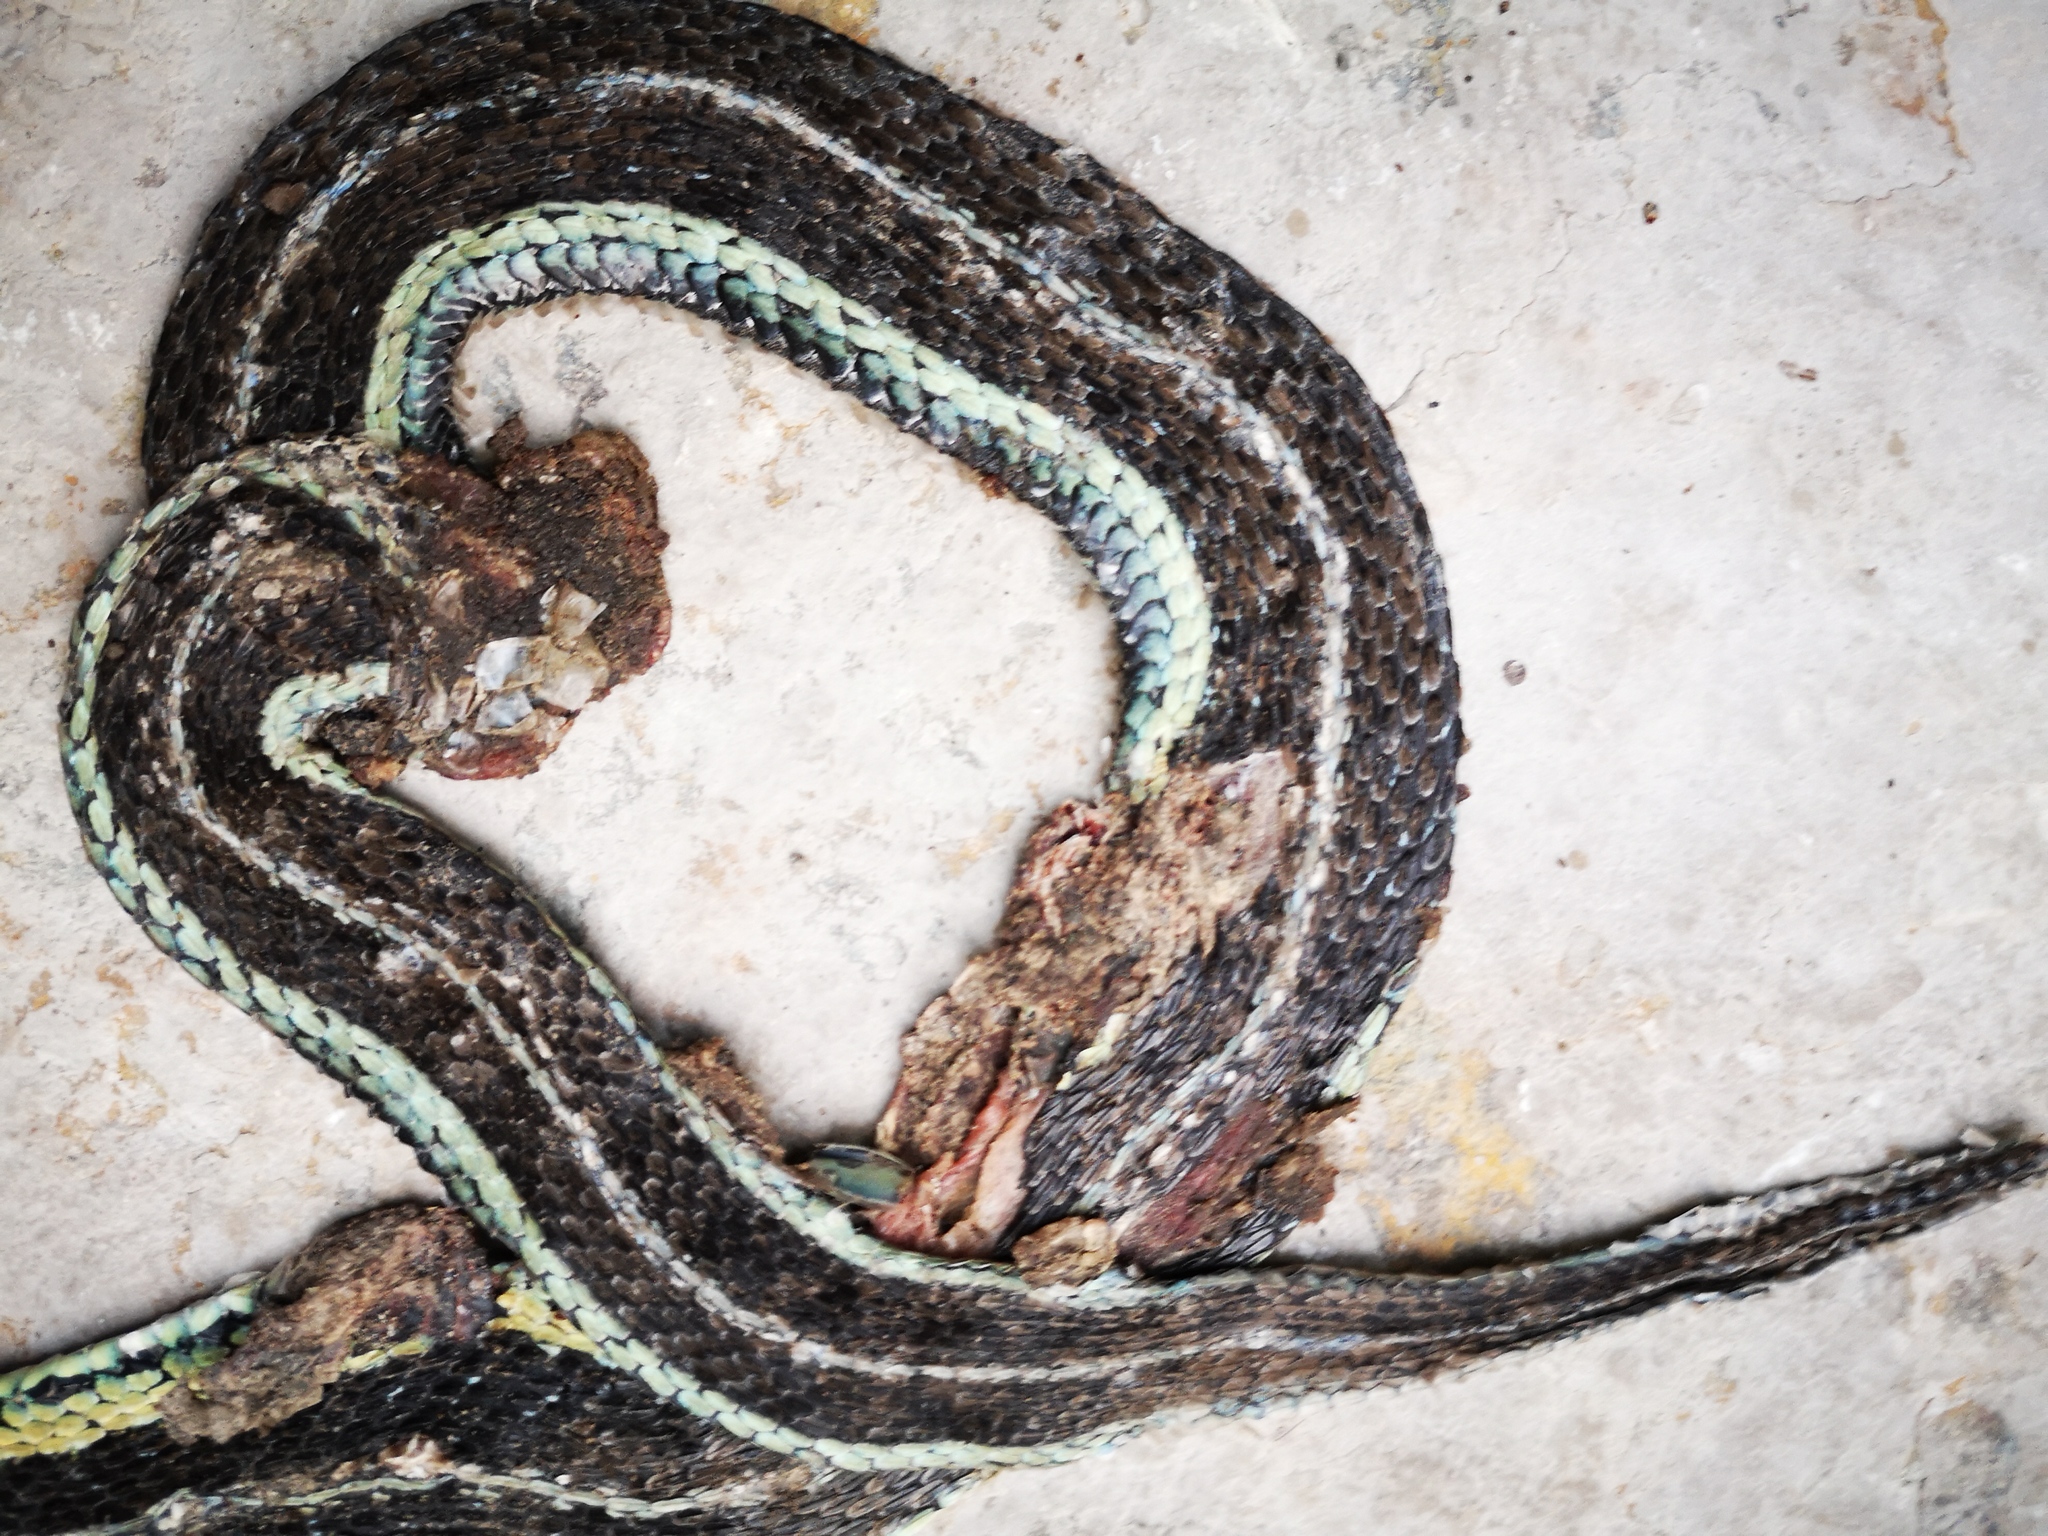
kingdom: Animalia
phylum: Chordata
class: Squamata
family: Colubridae
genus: Thamnophis
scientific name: Thamnophis sirtalis
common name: Common garter snake
